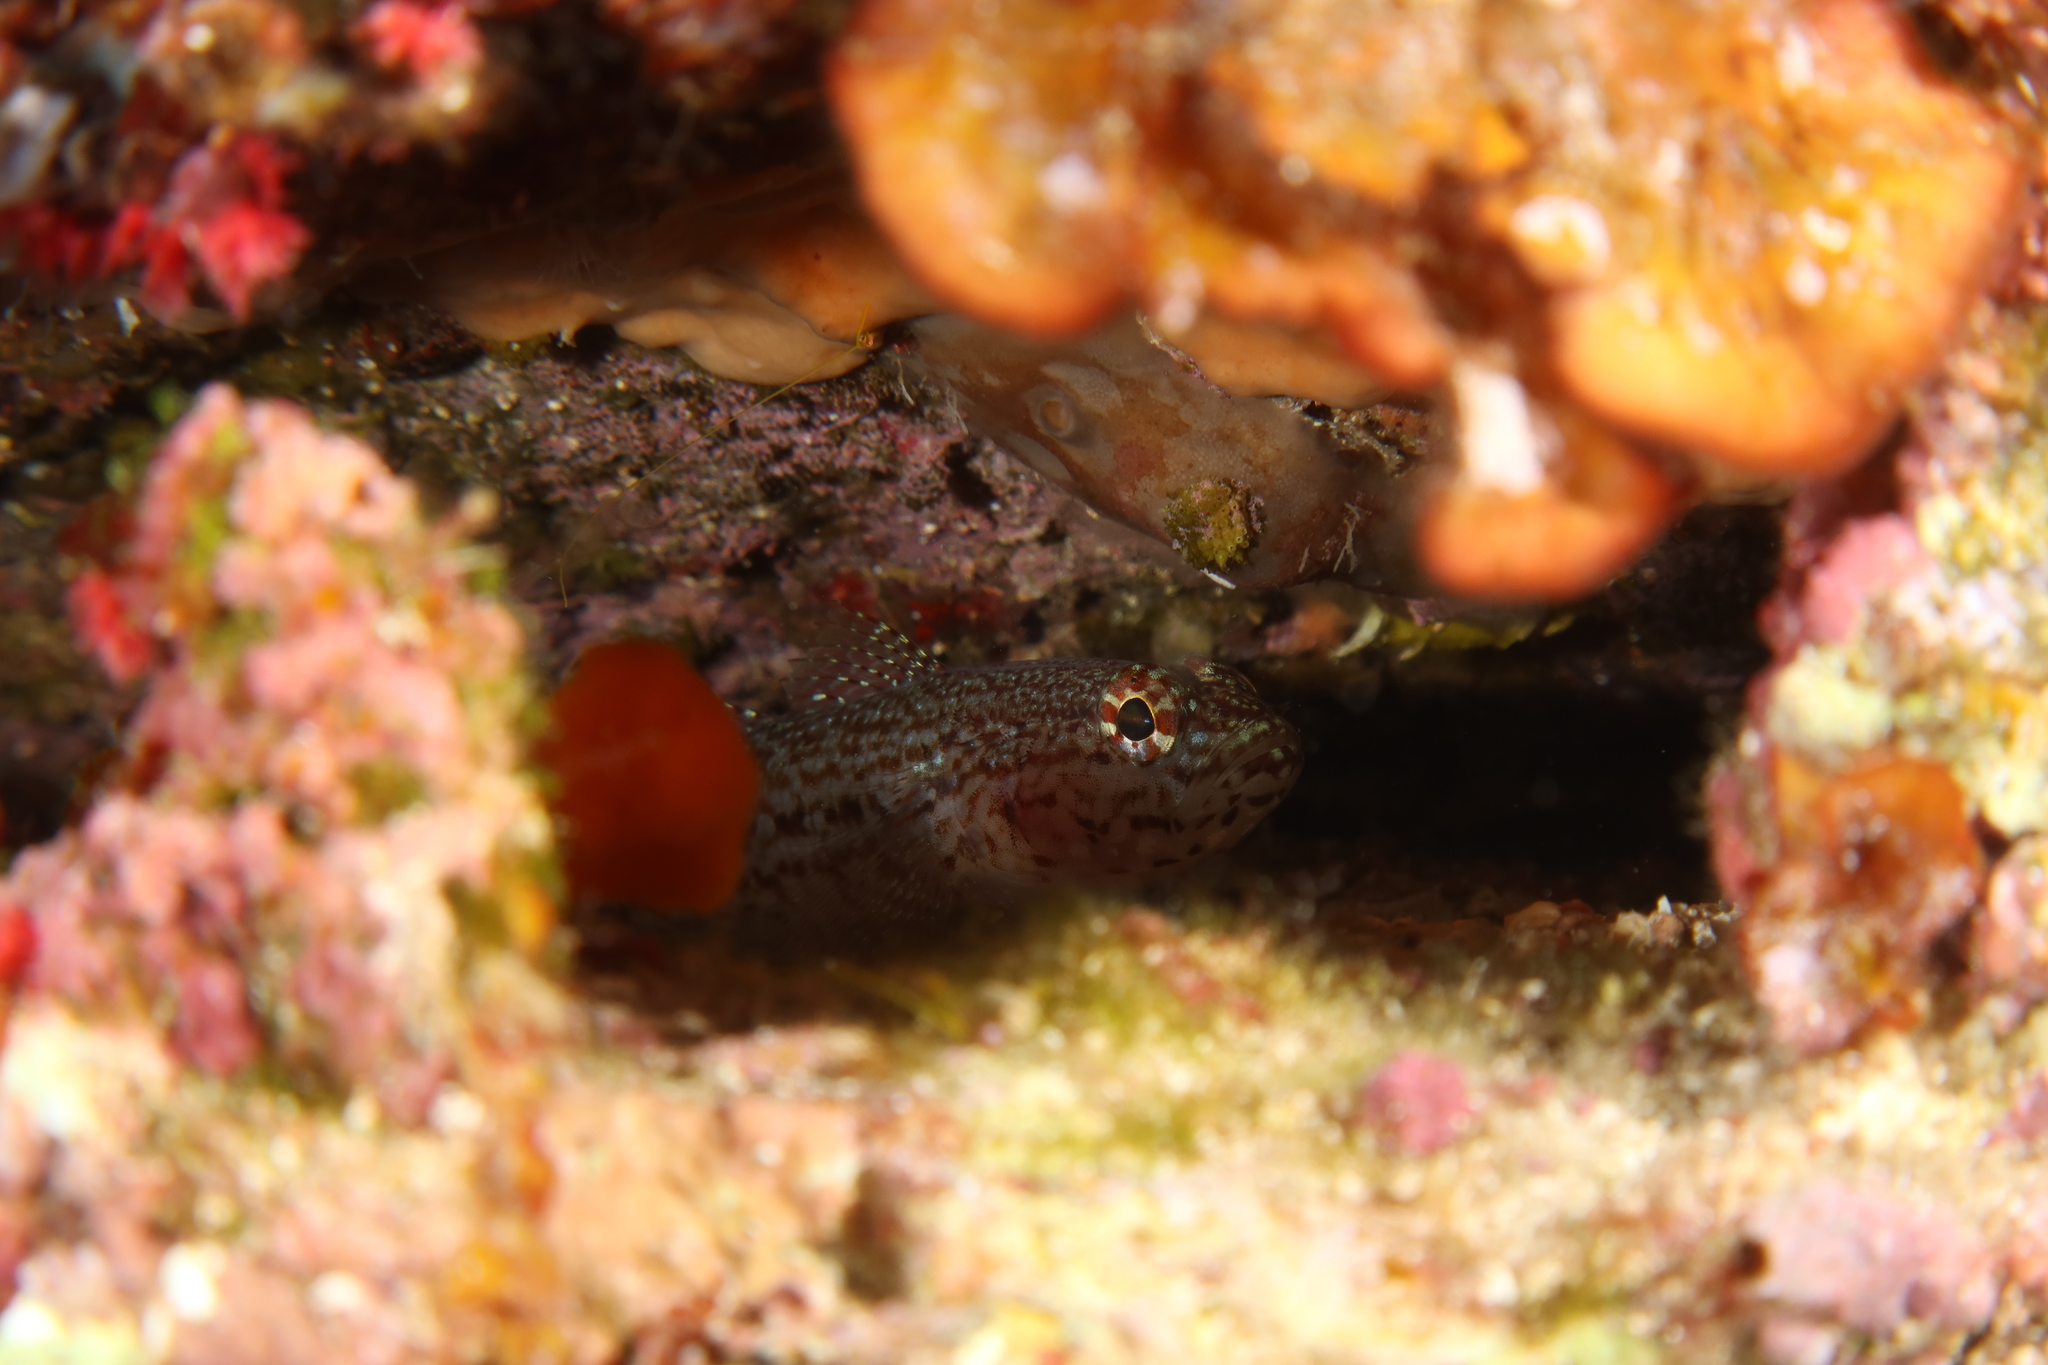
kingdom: Animalia
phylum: Chordata
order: Perciformes
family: Gobiidae
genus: Gobius
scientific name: Gobius fallax
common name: Sarato's goby
